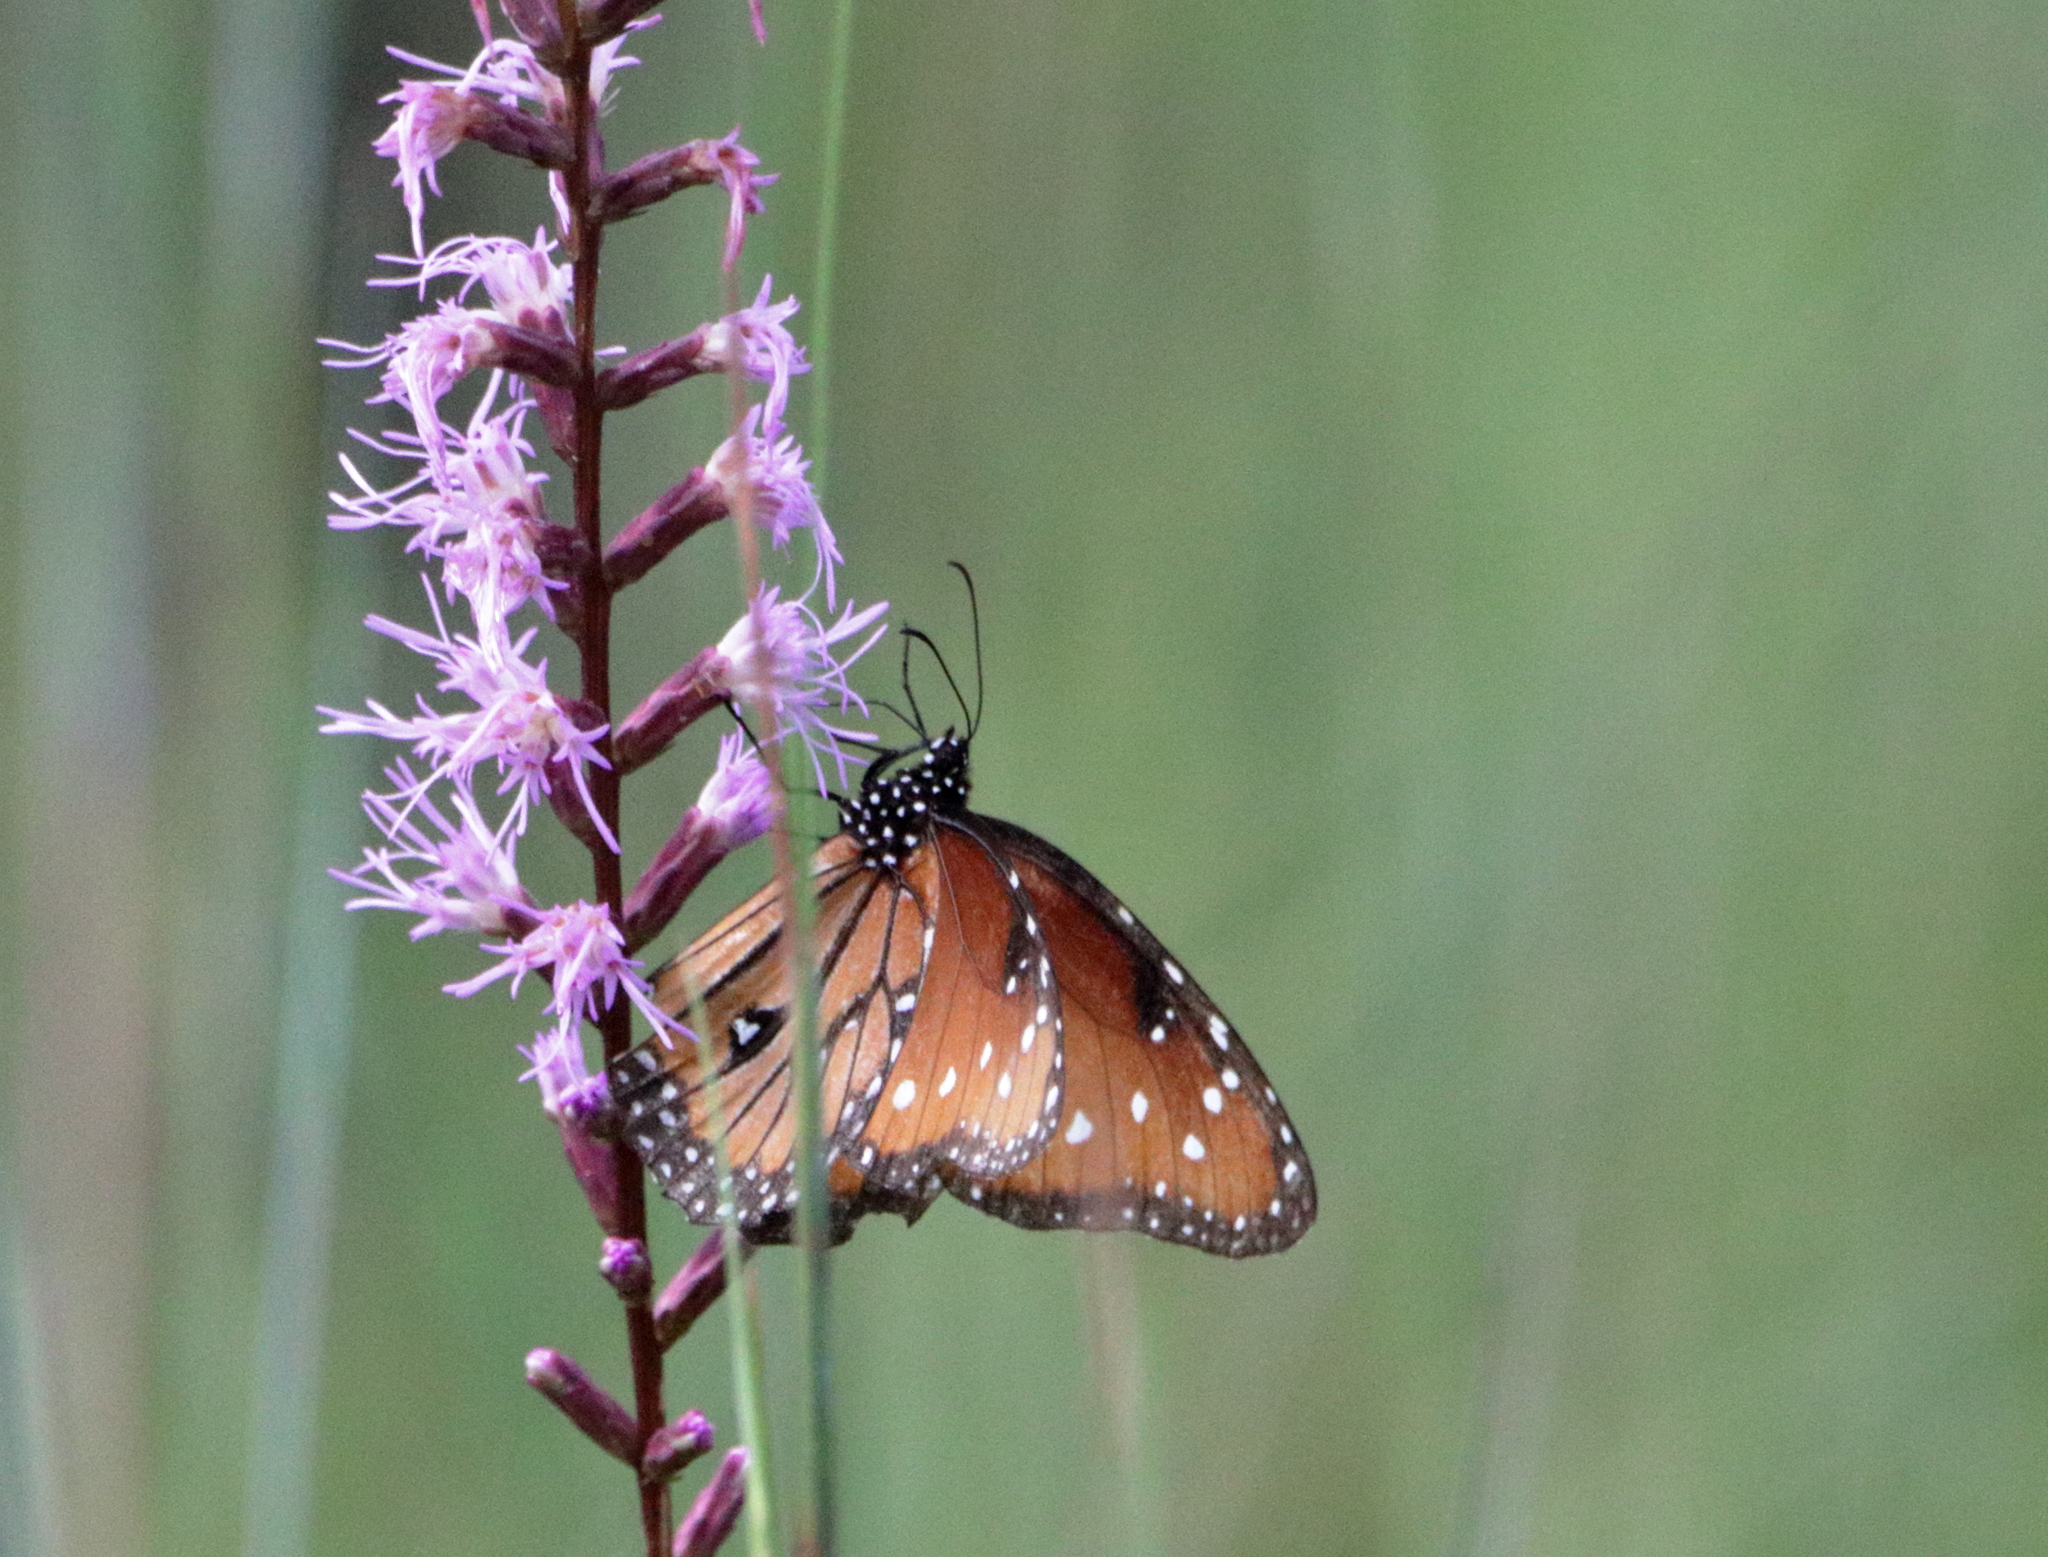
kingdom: Animalia
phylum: Arthropoda
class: Insecta
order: Lepidoptera
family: Nymphalidae
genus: Danaus
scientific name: Danaus gilippus
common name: Queen
